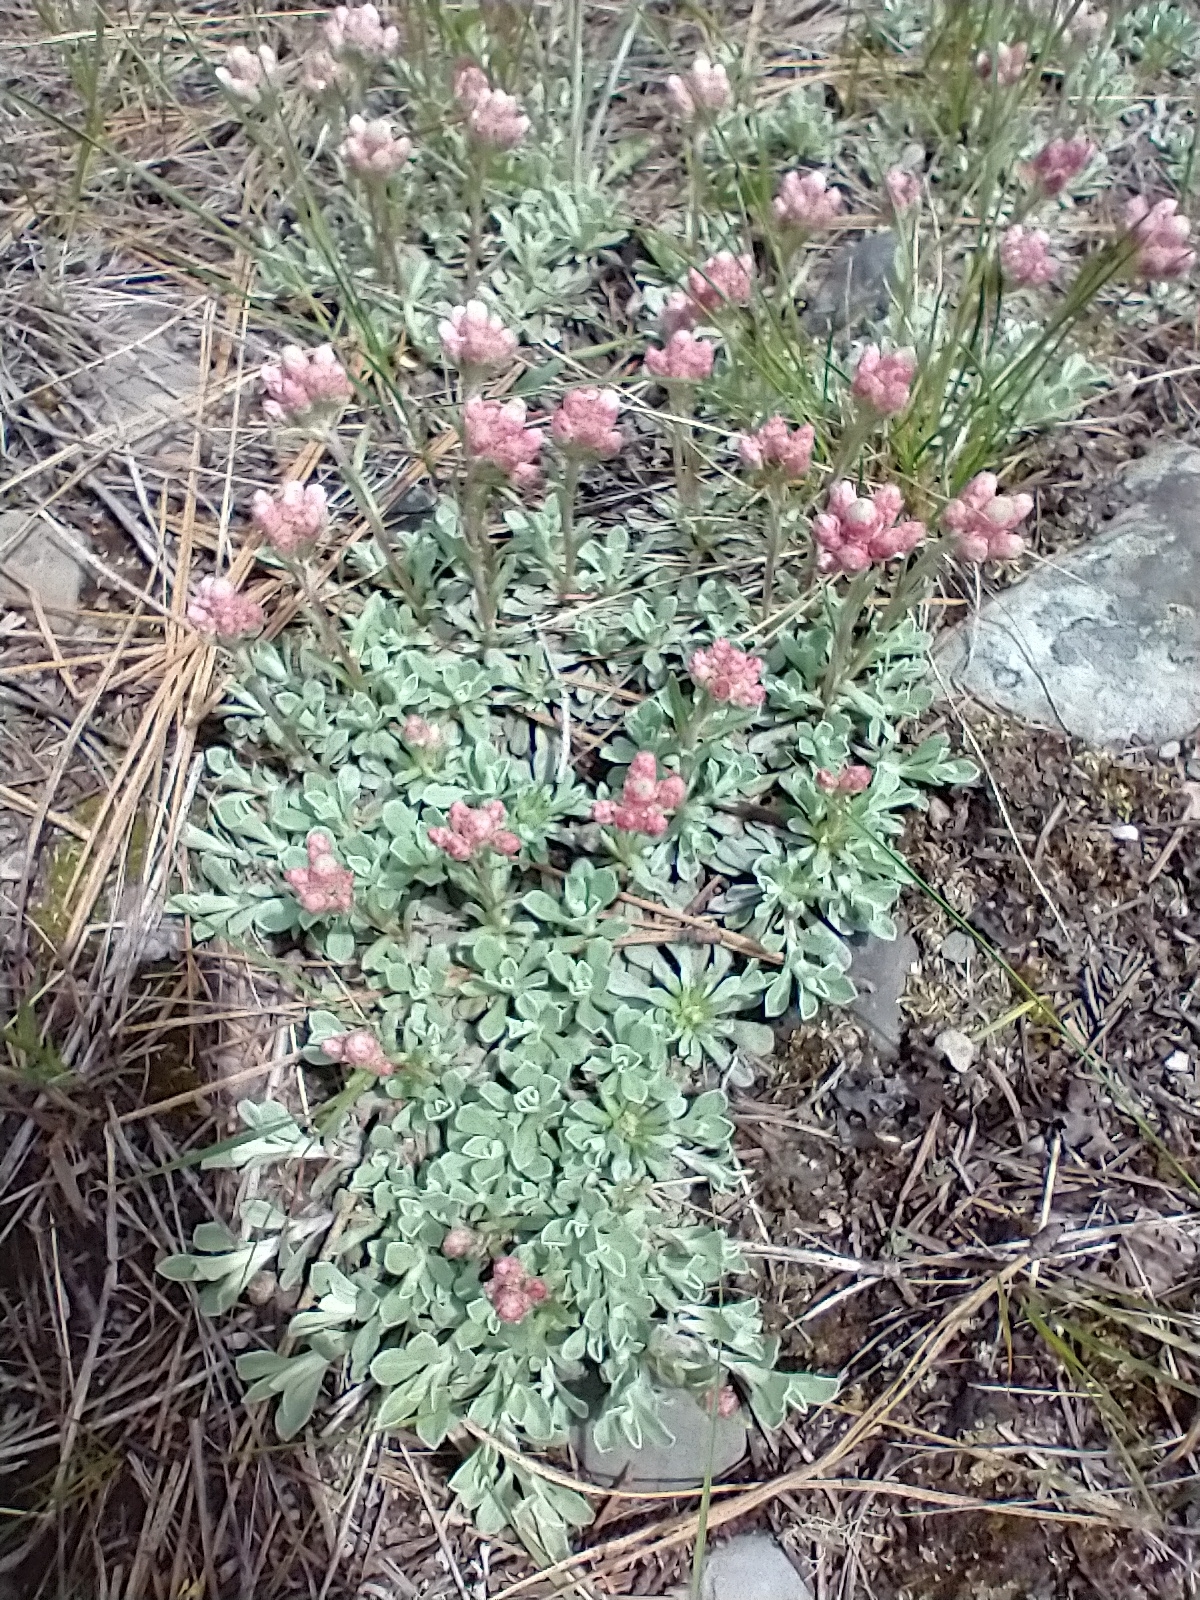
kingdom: Plantae
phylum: Tracheophyta
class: Magnoliopsida
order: Asterales
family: Asteraceae
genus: Antennaria
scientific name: Antennaria parvifolia
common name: Nuttall's pussytoes
